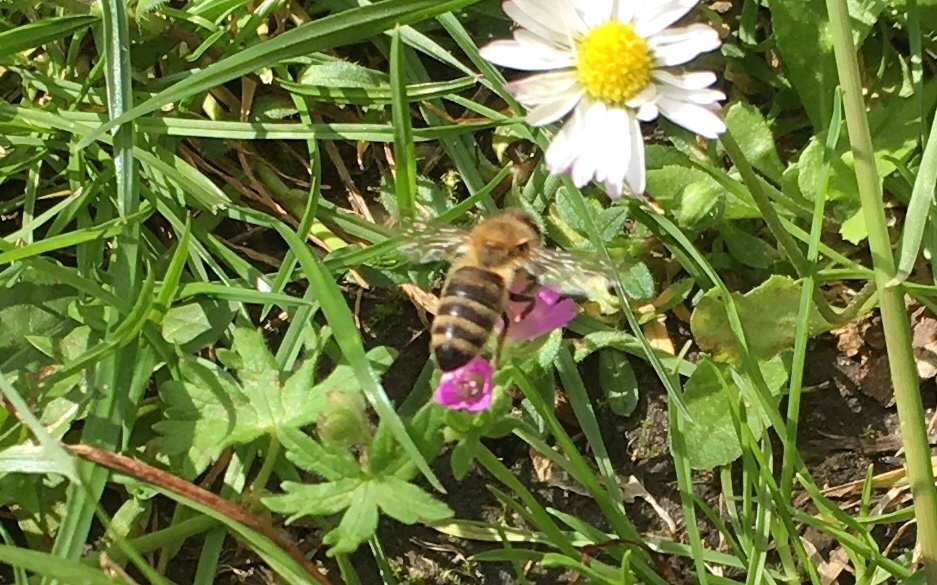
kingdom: Animalia
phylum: Arthropoda
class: Insecta
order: Hymenoptera
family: Apidae
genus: Apis
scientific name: Apis mellifera
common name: Honey bee
